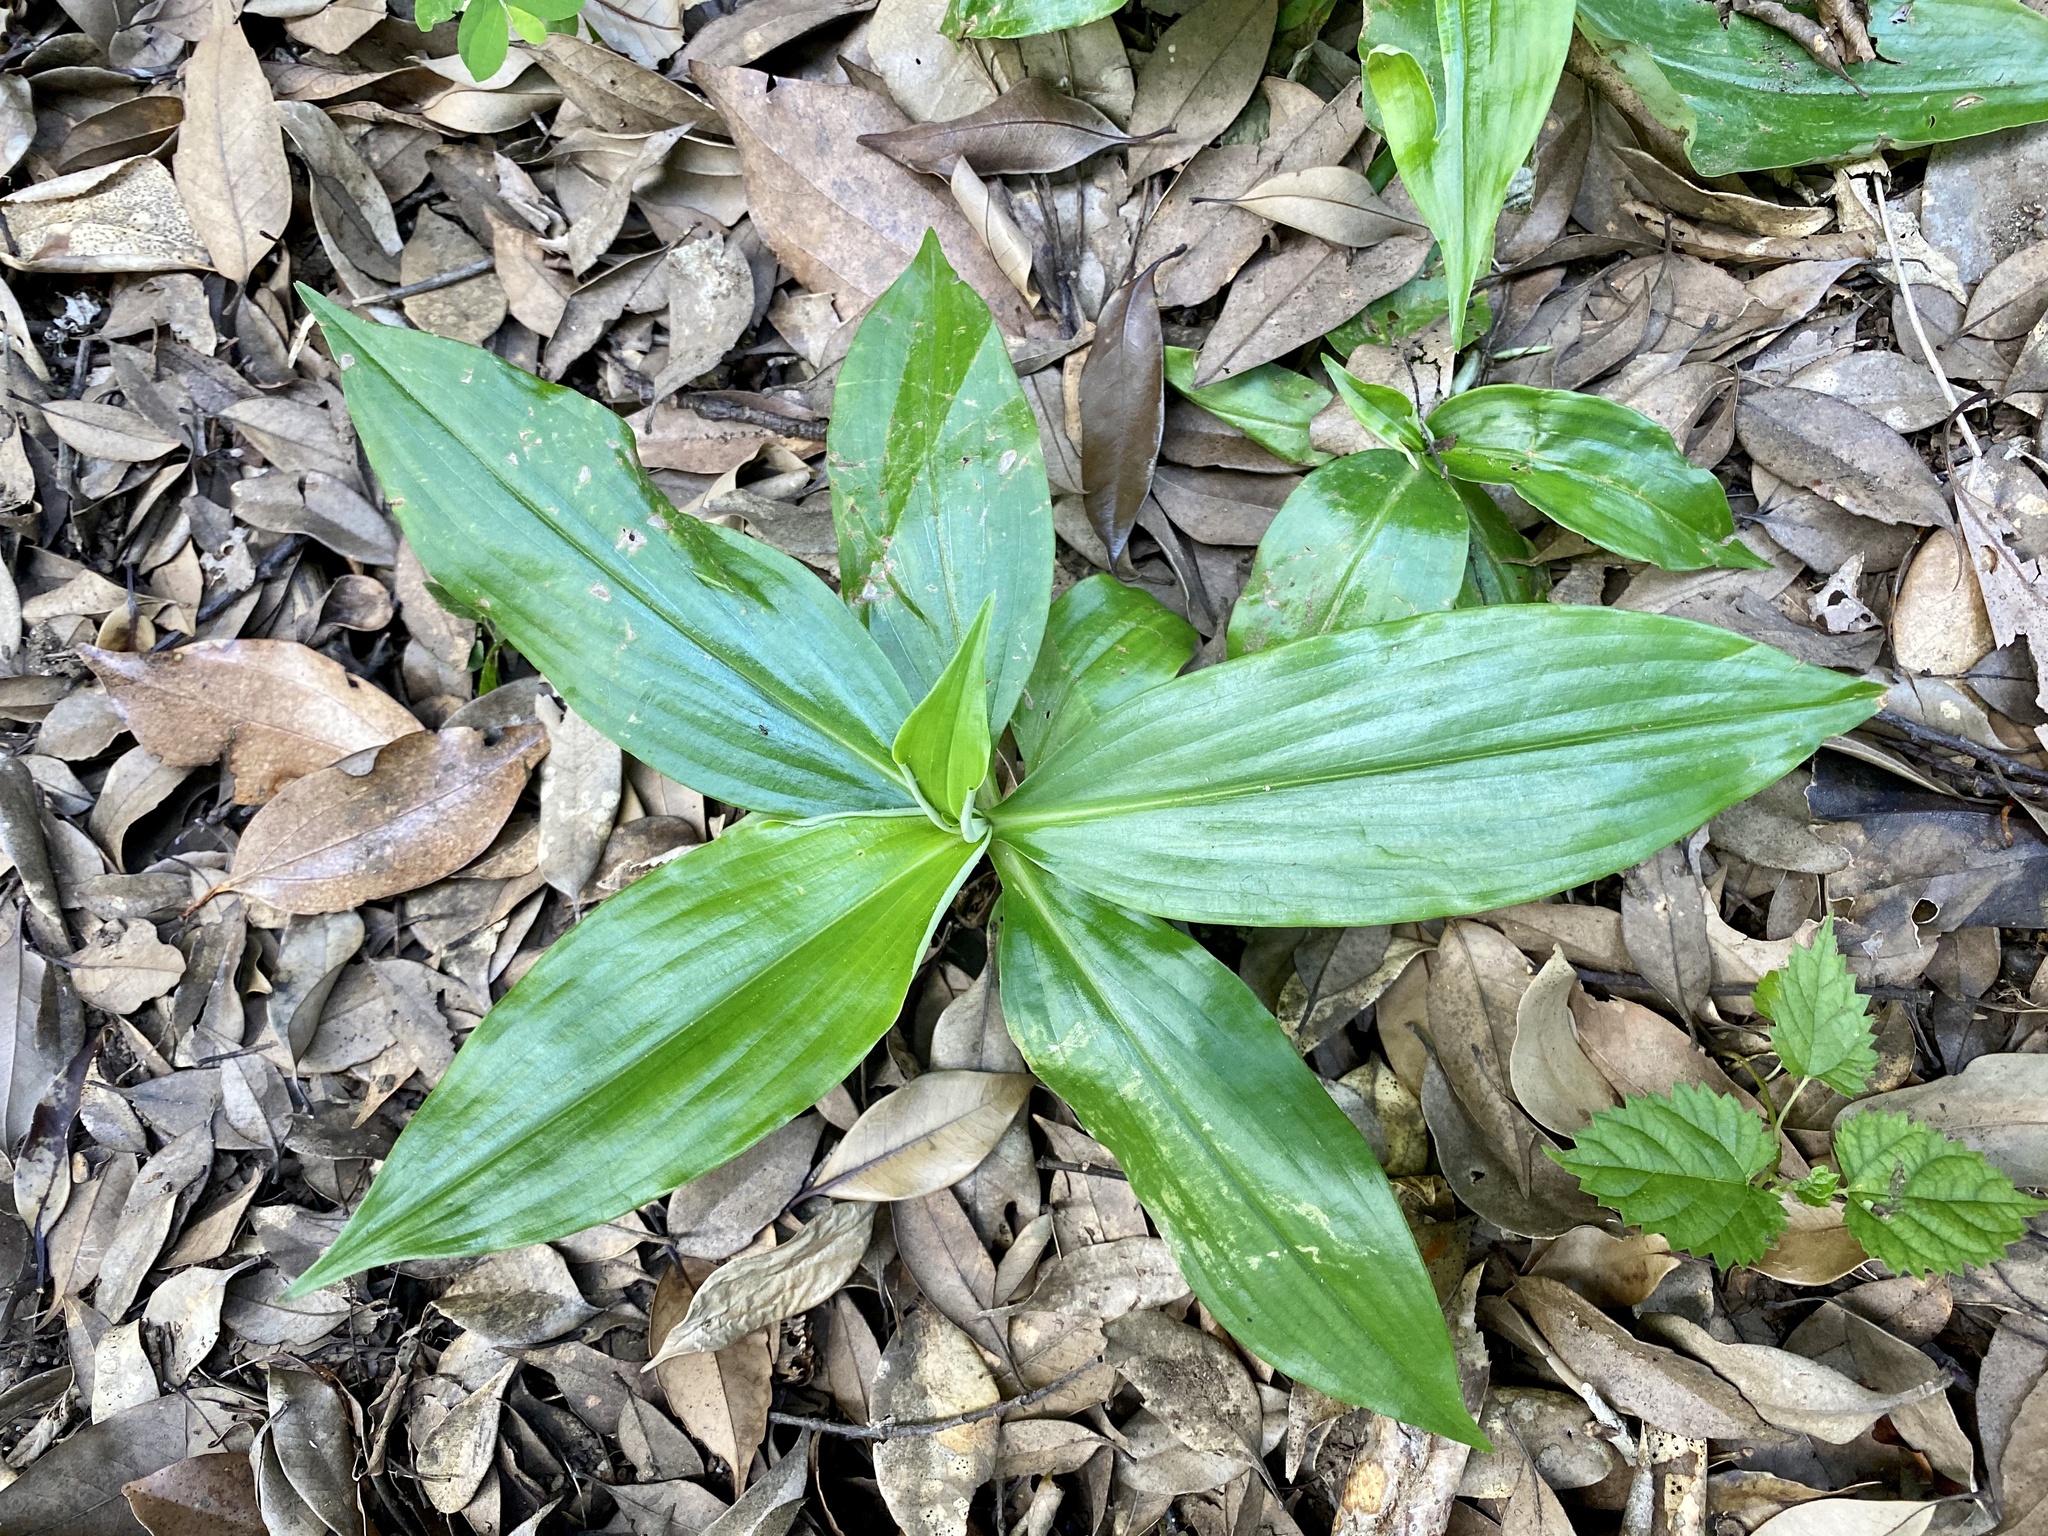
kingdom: Plantae
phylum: Tracheophyta
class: Liliopsida
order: Commelinales
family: Commelinaceae
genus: Pollia
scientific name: Pollia japonica
